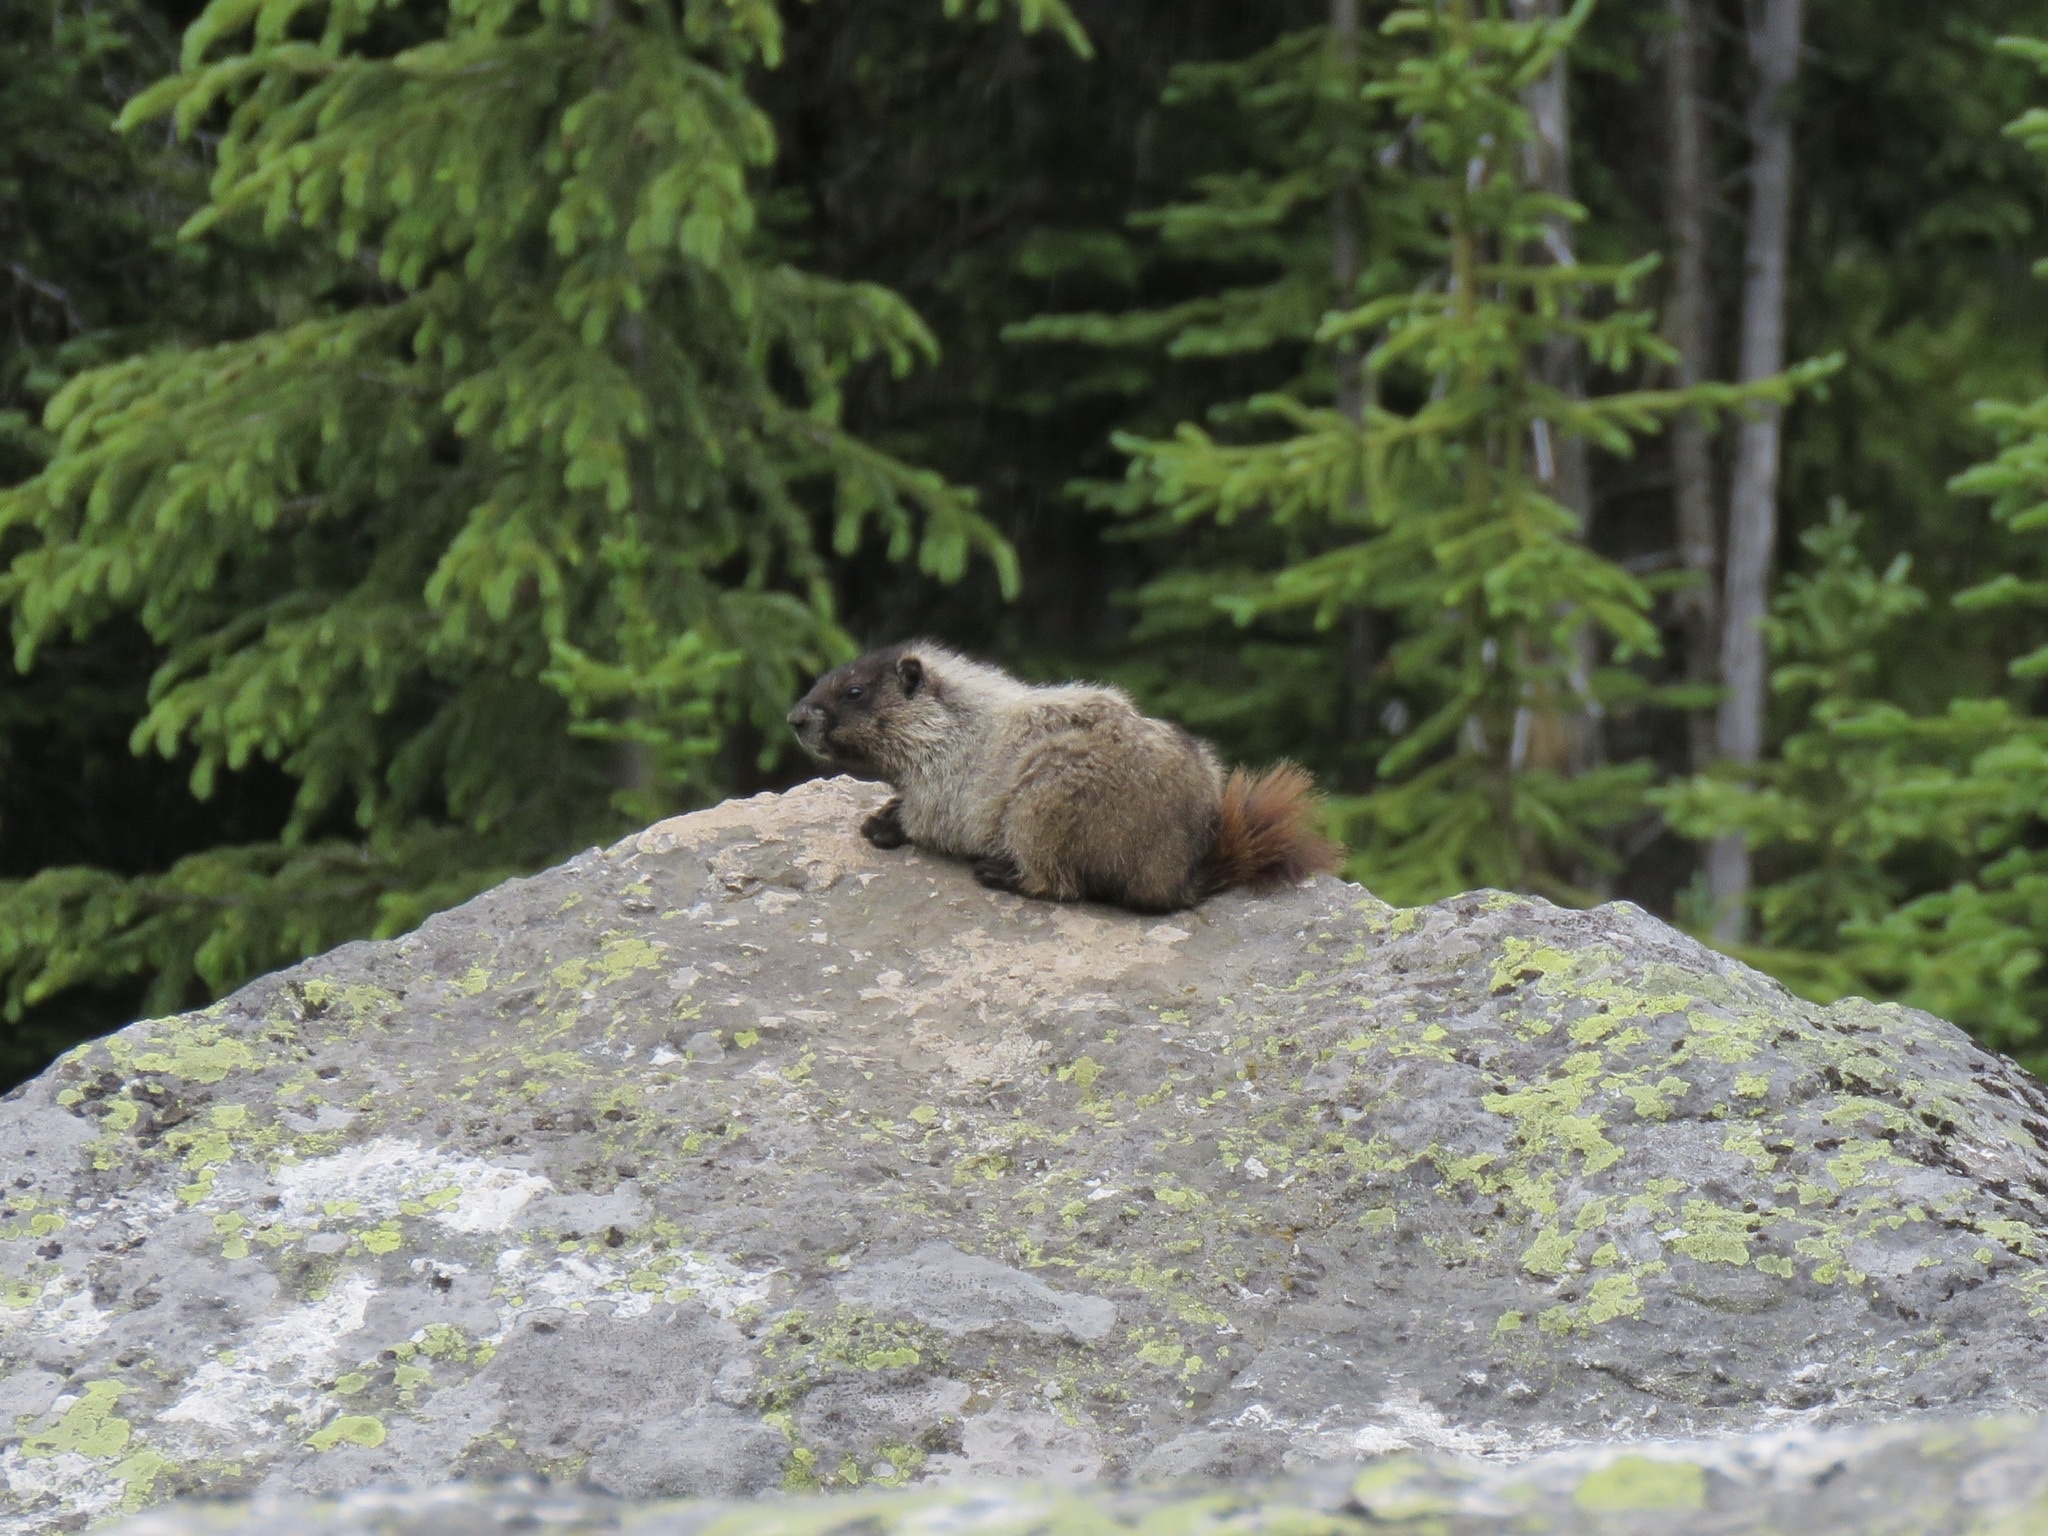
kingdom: Animalia
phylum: Chordata
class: Mammalia
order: Rodentia
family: Sciuridae
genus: Marmota
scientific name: Marmota caligata
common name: Hoary marmot
